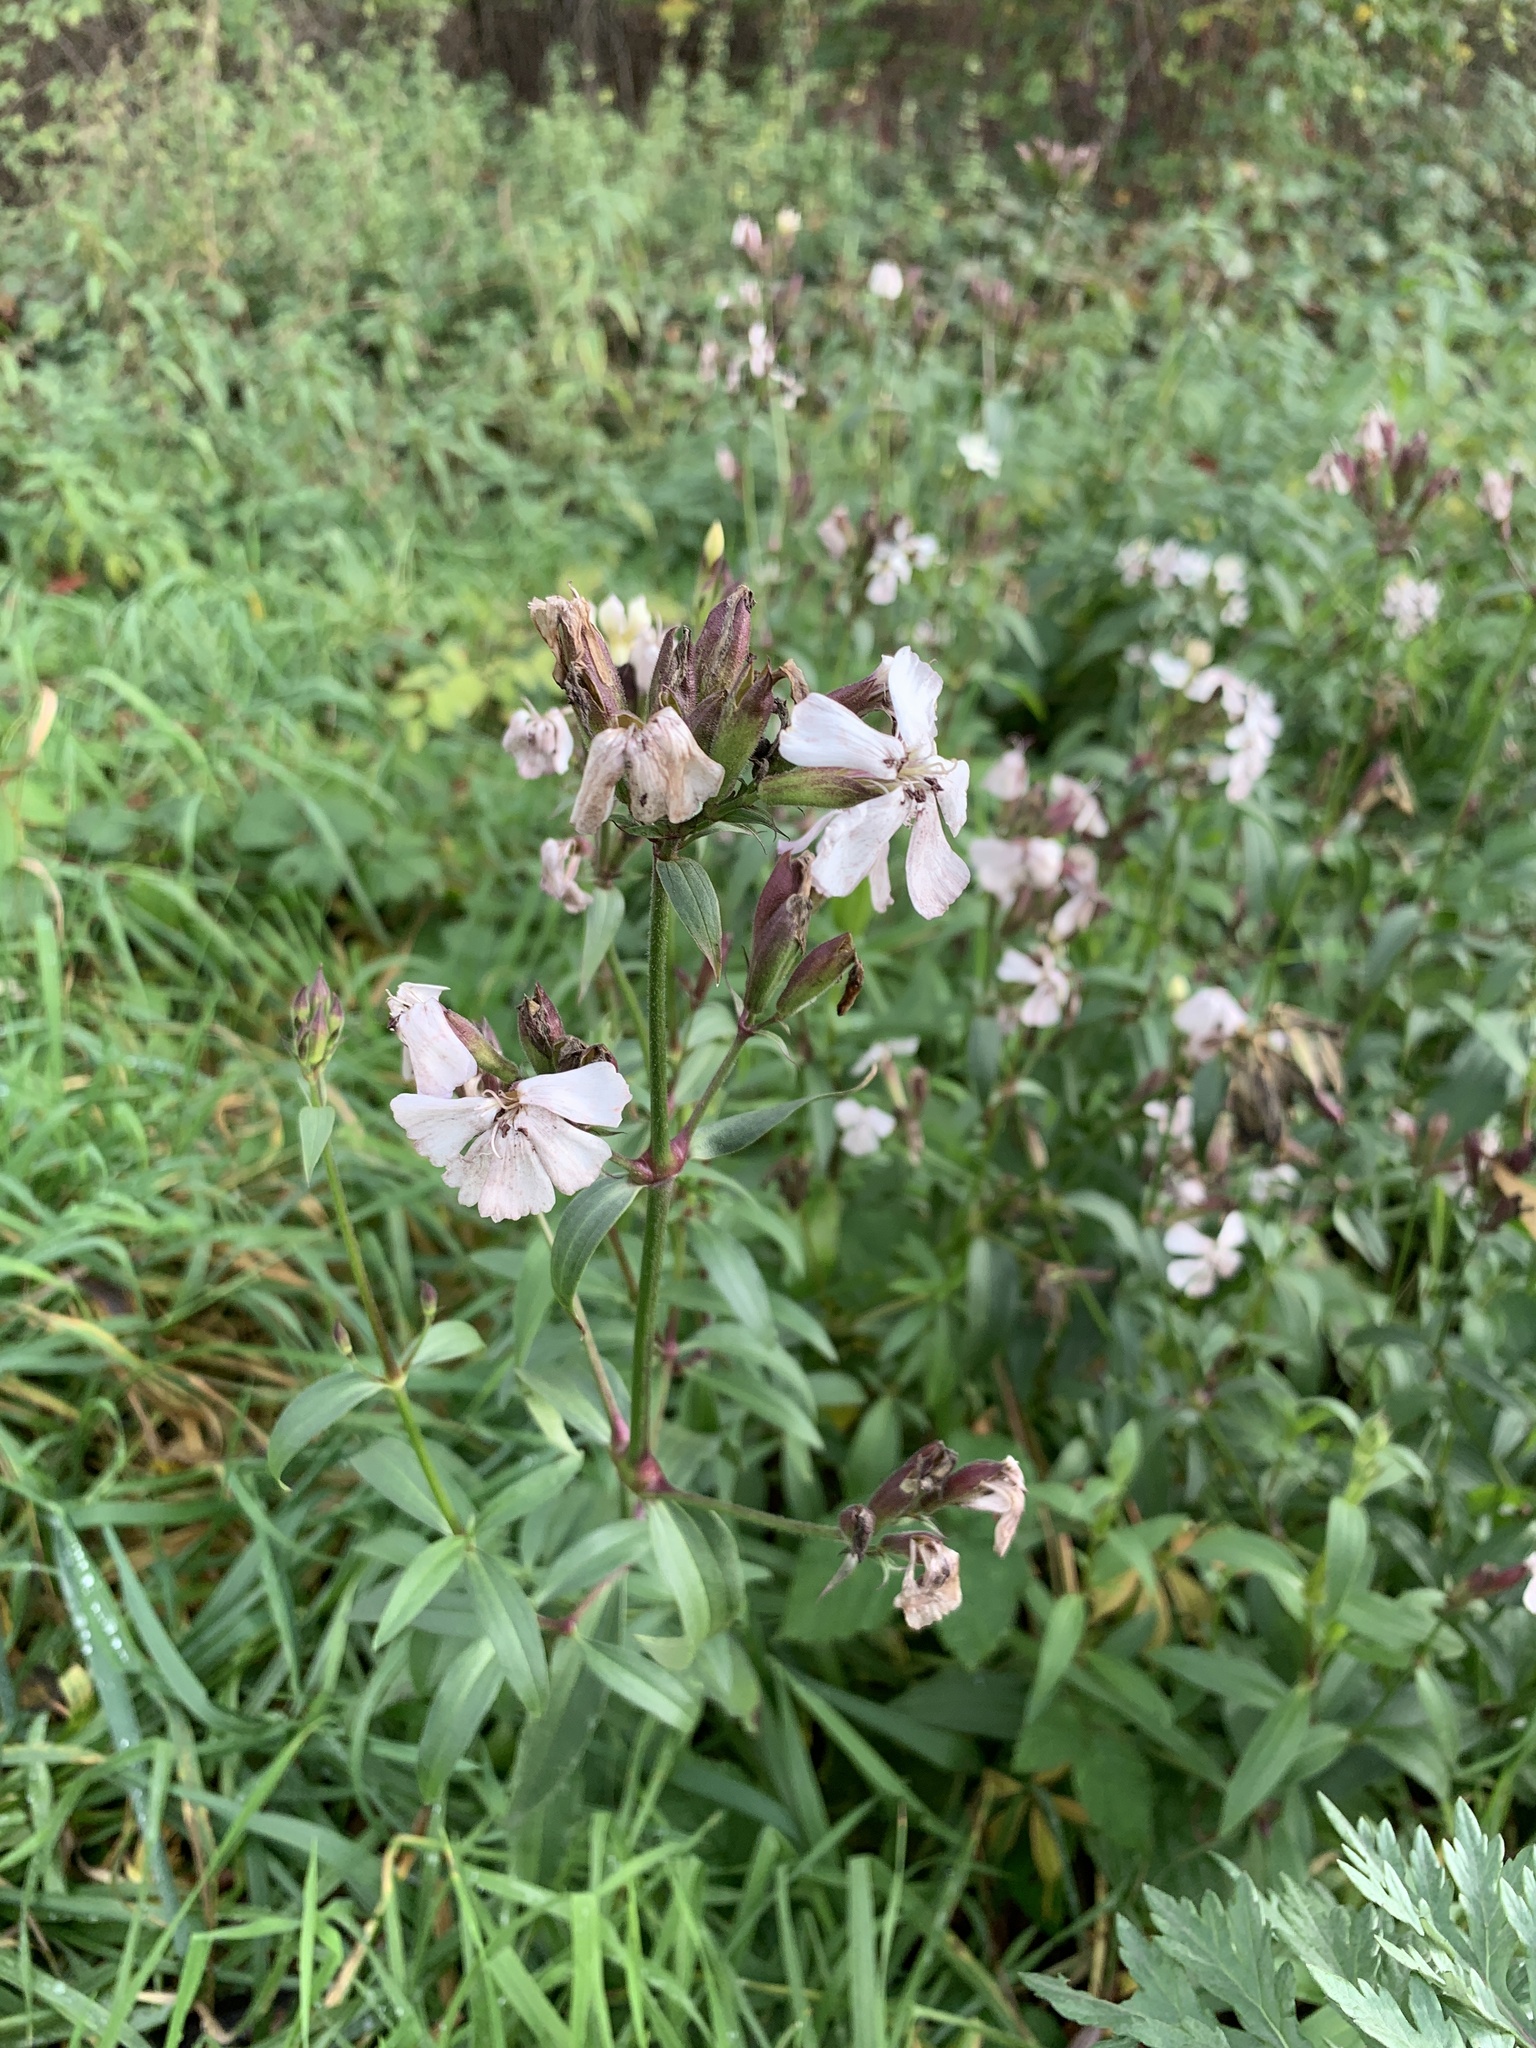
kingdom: Plantae
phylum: Tracheophyta
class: Magnoliopsida
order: Caryophyllales
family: Caryophyllaceae
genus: Saponaria
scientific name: Saponaria officinalis
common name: Soapwort
